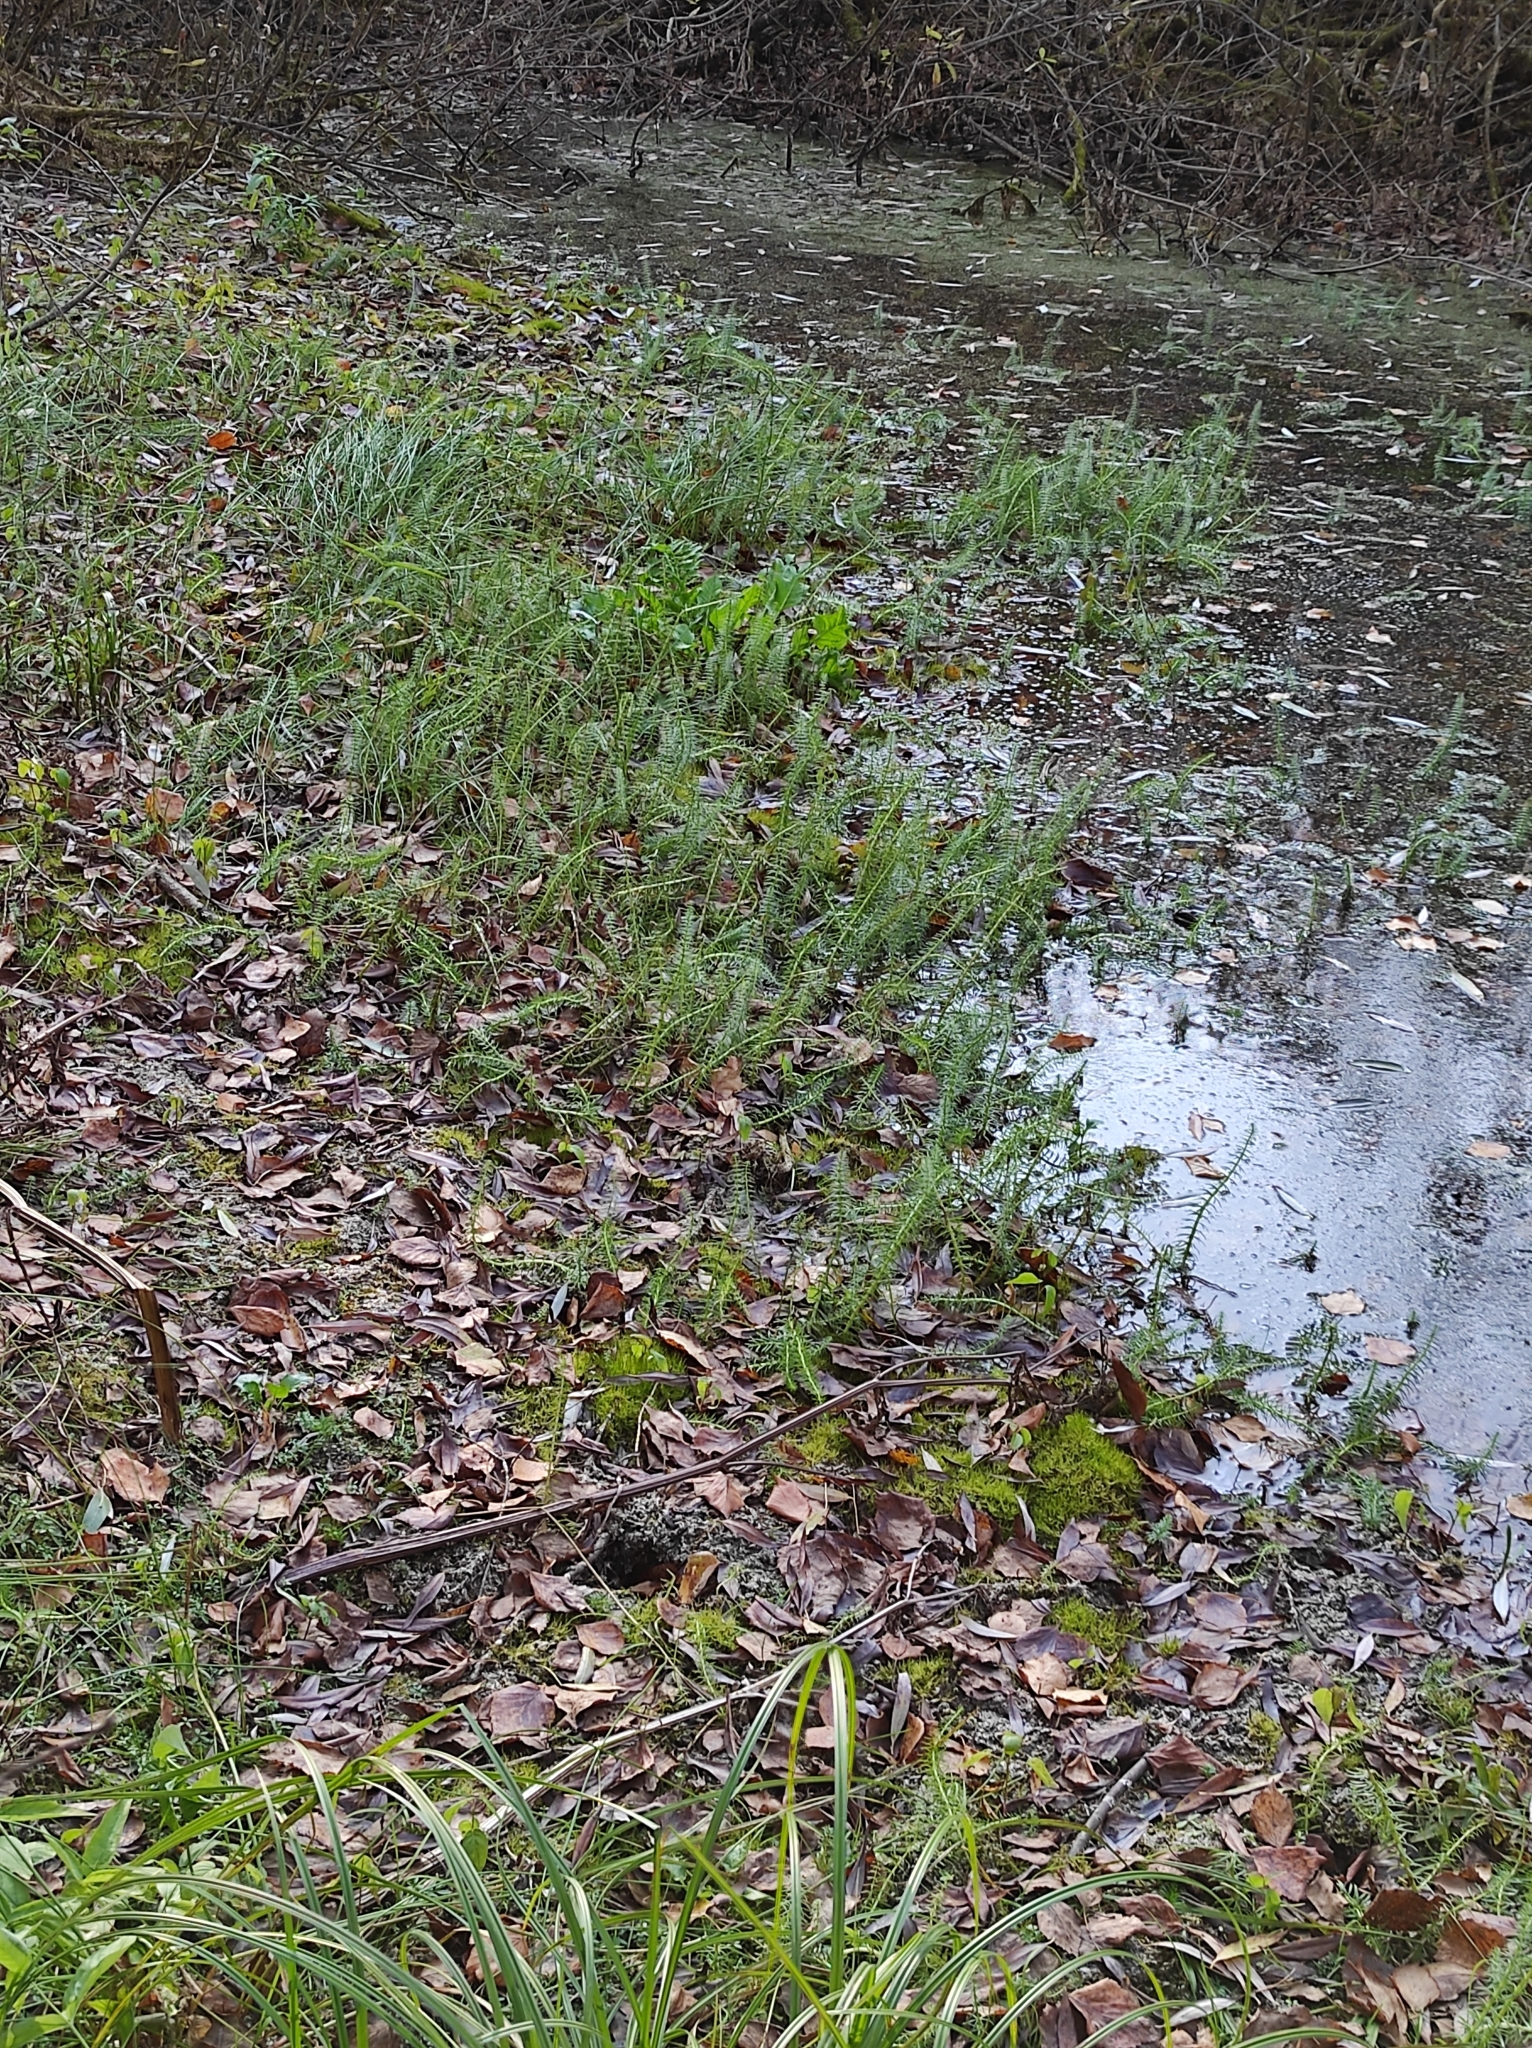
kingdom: Plantae
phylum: Tracheophyta
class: Magnoliopsida
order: Lamiales
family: Plantaginaceae
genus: Hippuris
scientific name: Hippuris vulgaris
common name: Mare's-tail
